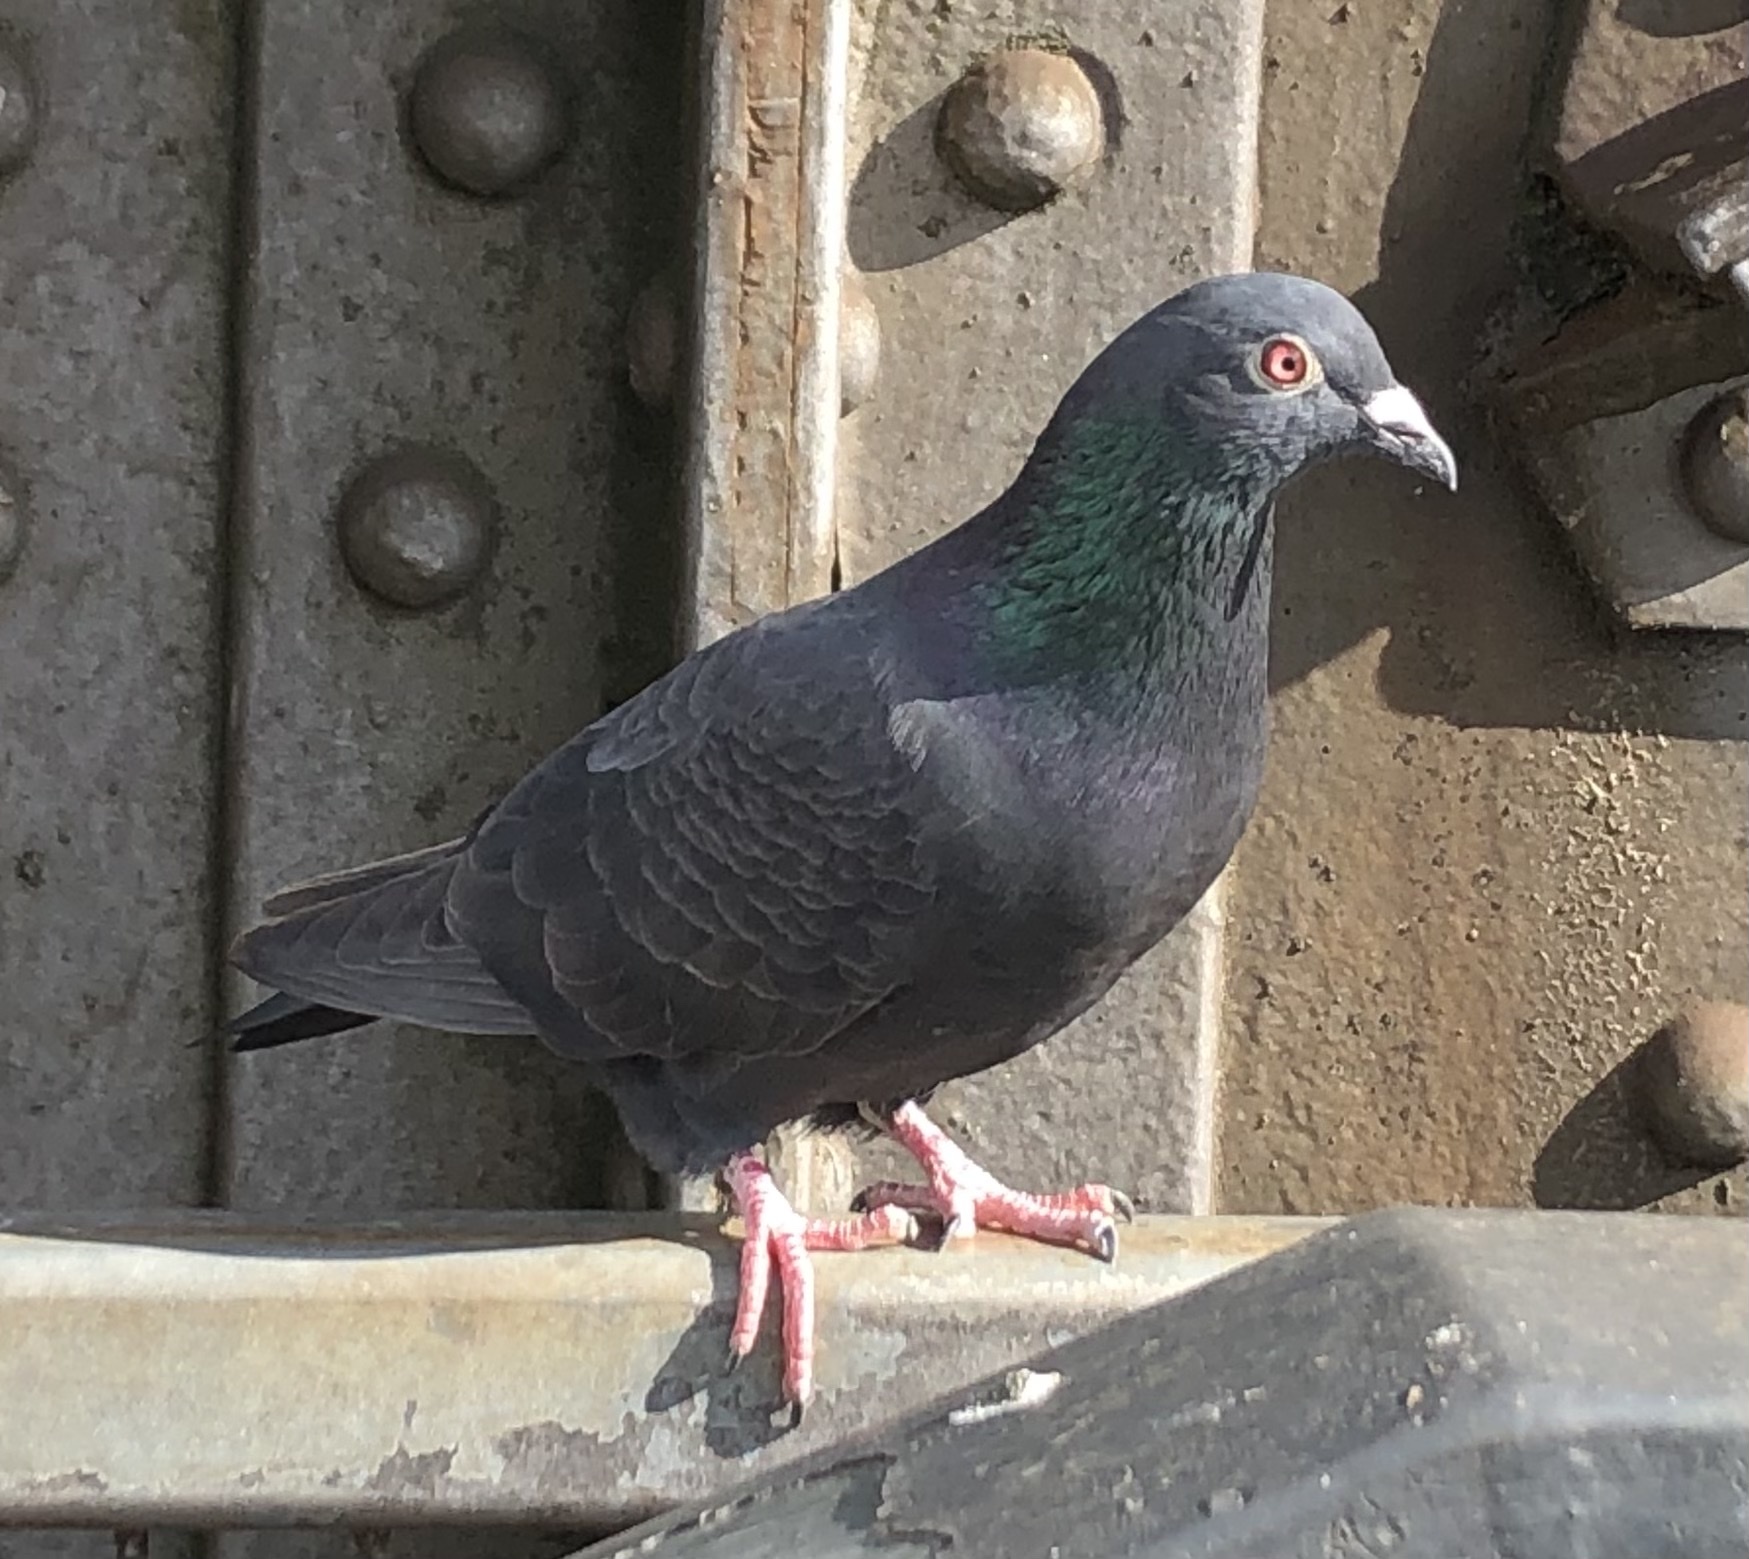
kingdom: Animalia
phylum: Chordata
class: Aves
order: Columbiformes
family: Columbidae
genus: Columba
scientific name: Columba livia
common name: Rock pigeon
